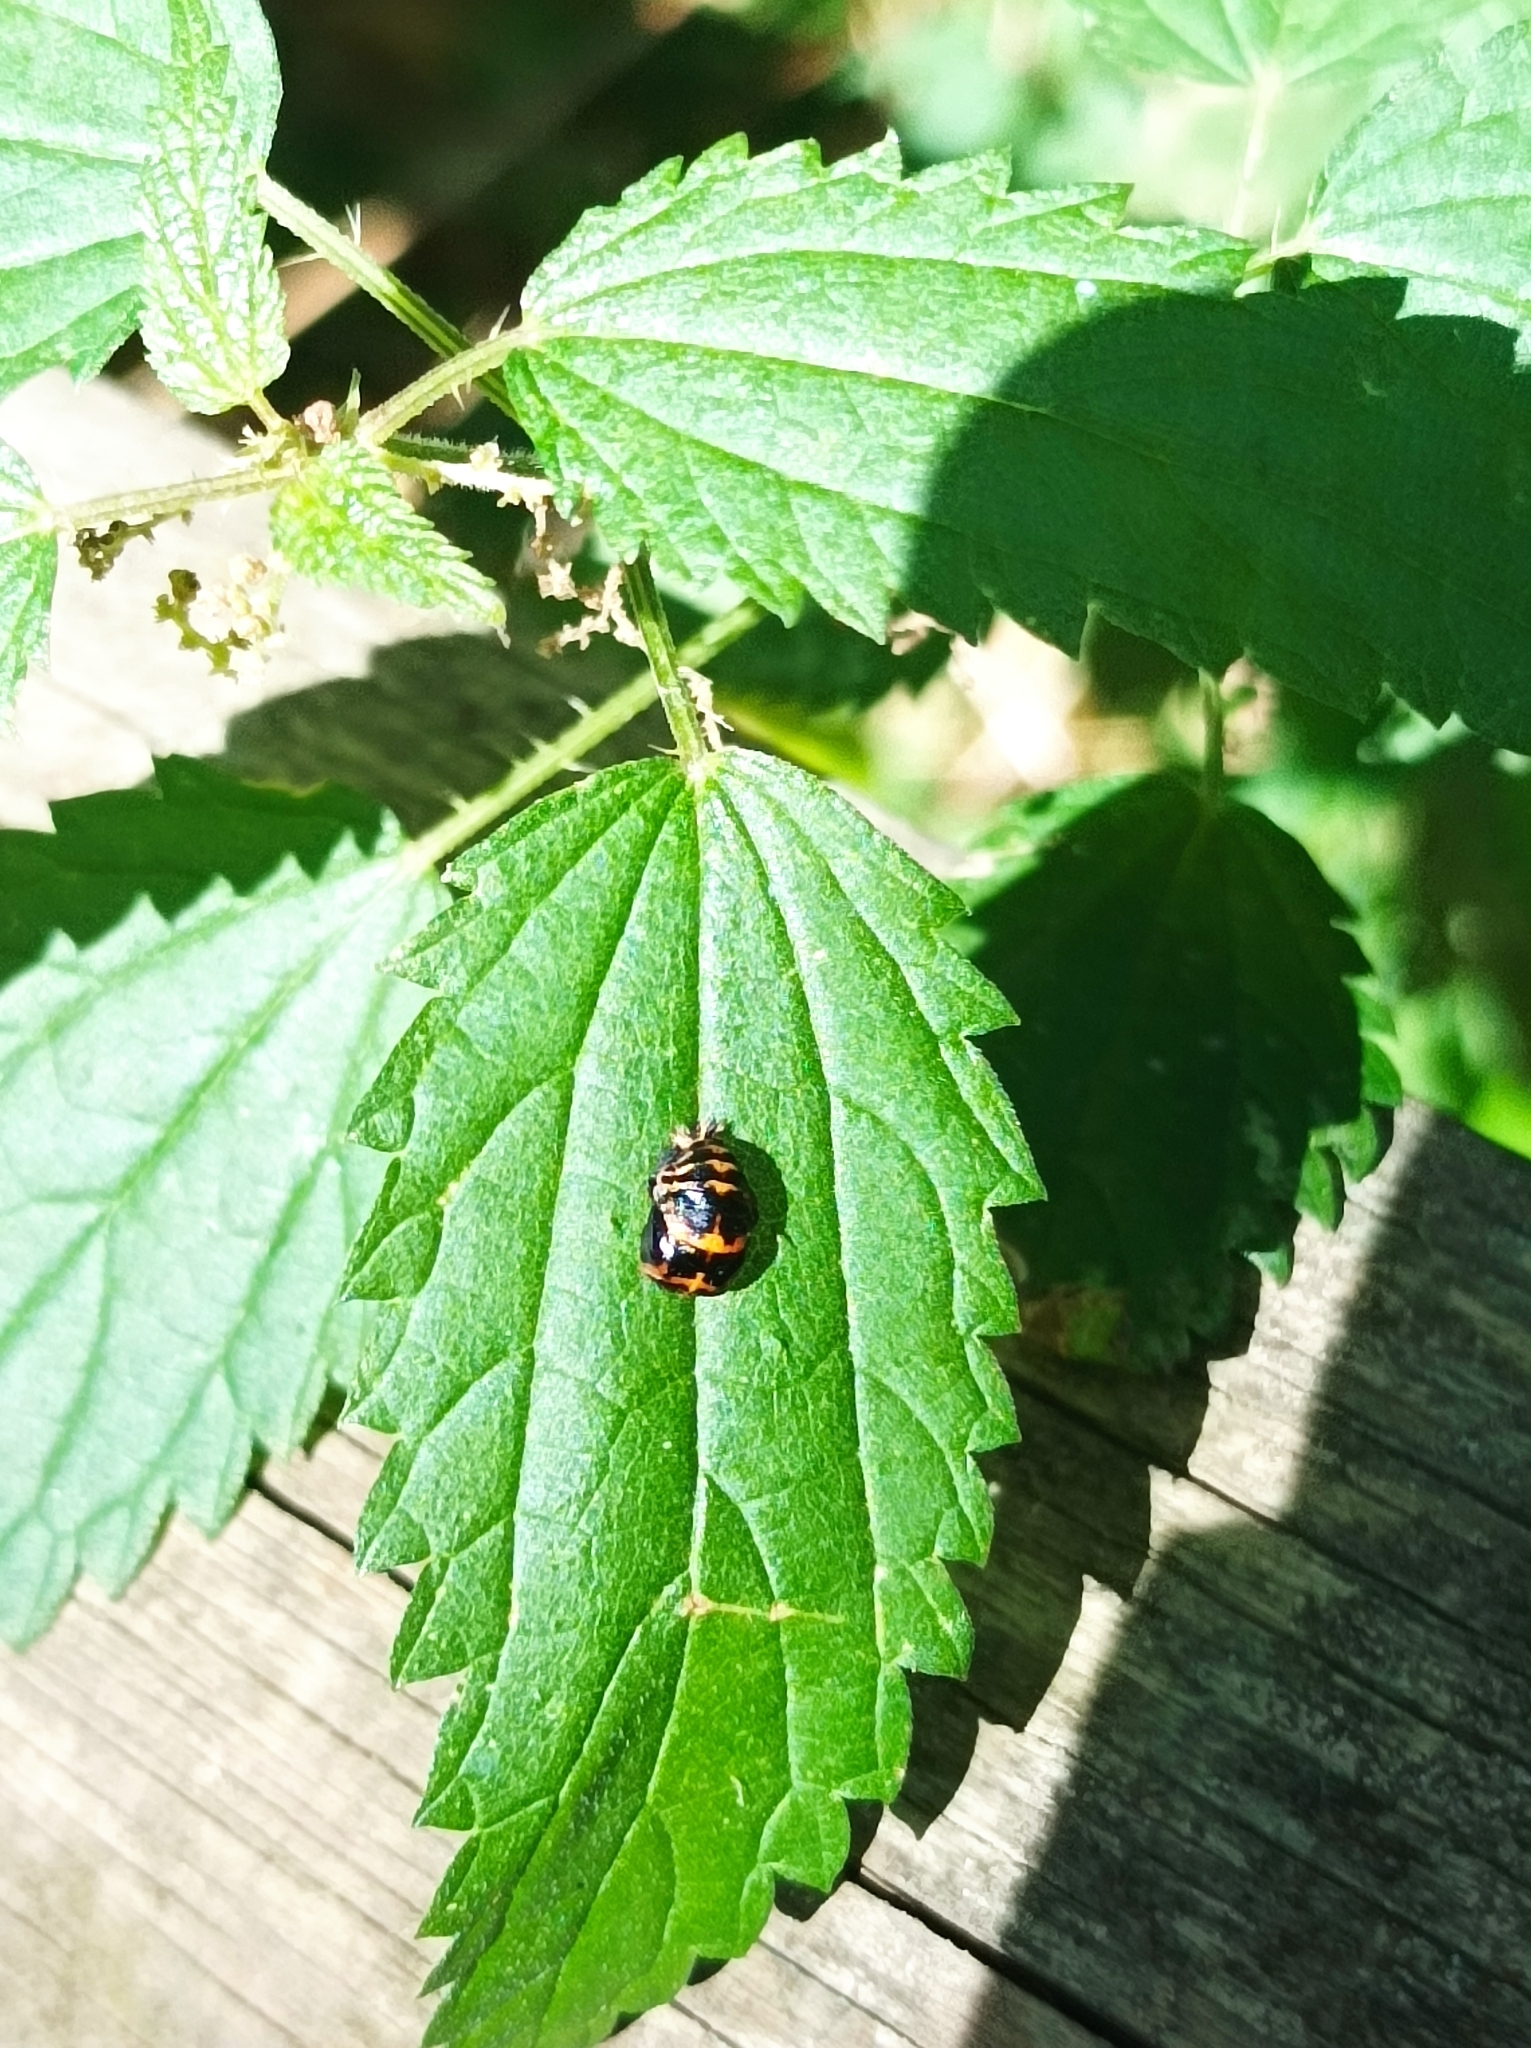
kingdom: Animalia
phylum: Arthropoda
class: Insecta
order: Coleoptera
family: Coccinellidae
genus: Harmonia
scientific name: Harmonia axyridis
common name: Harlequin ladybird
